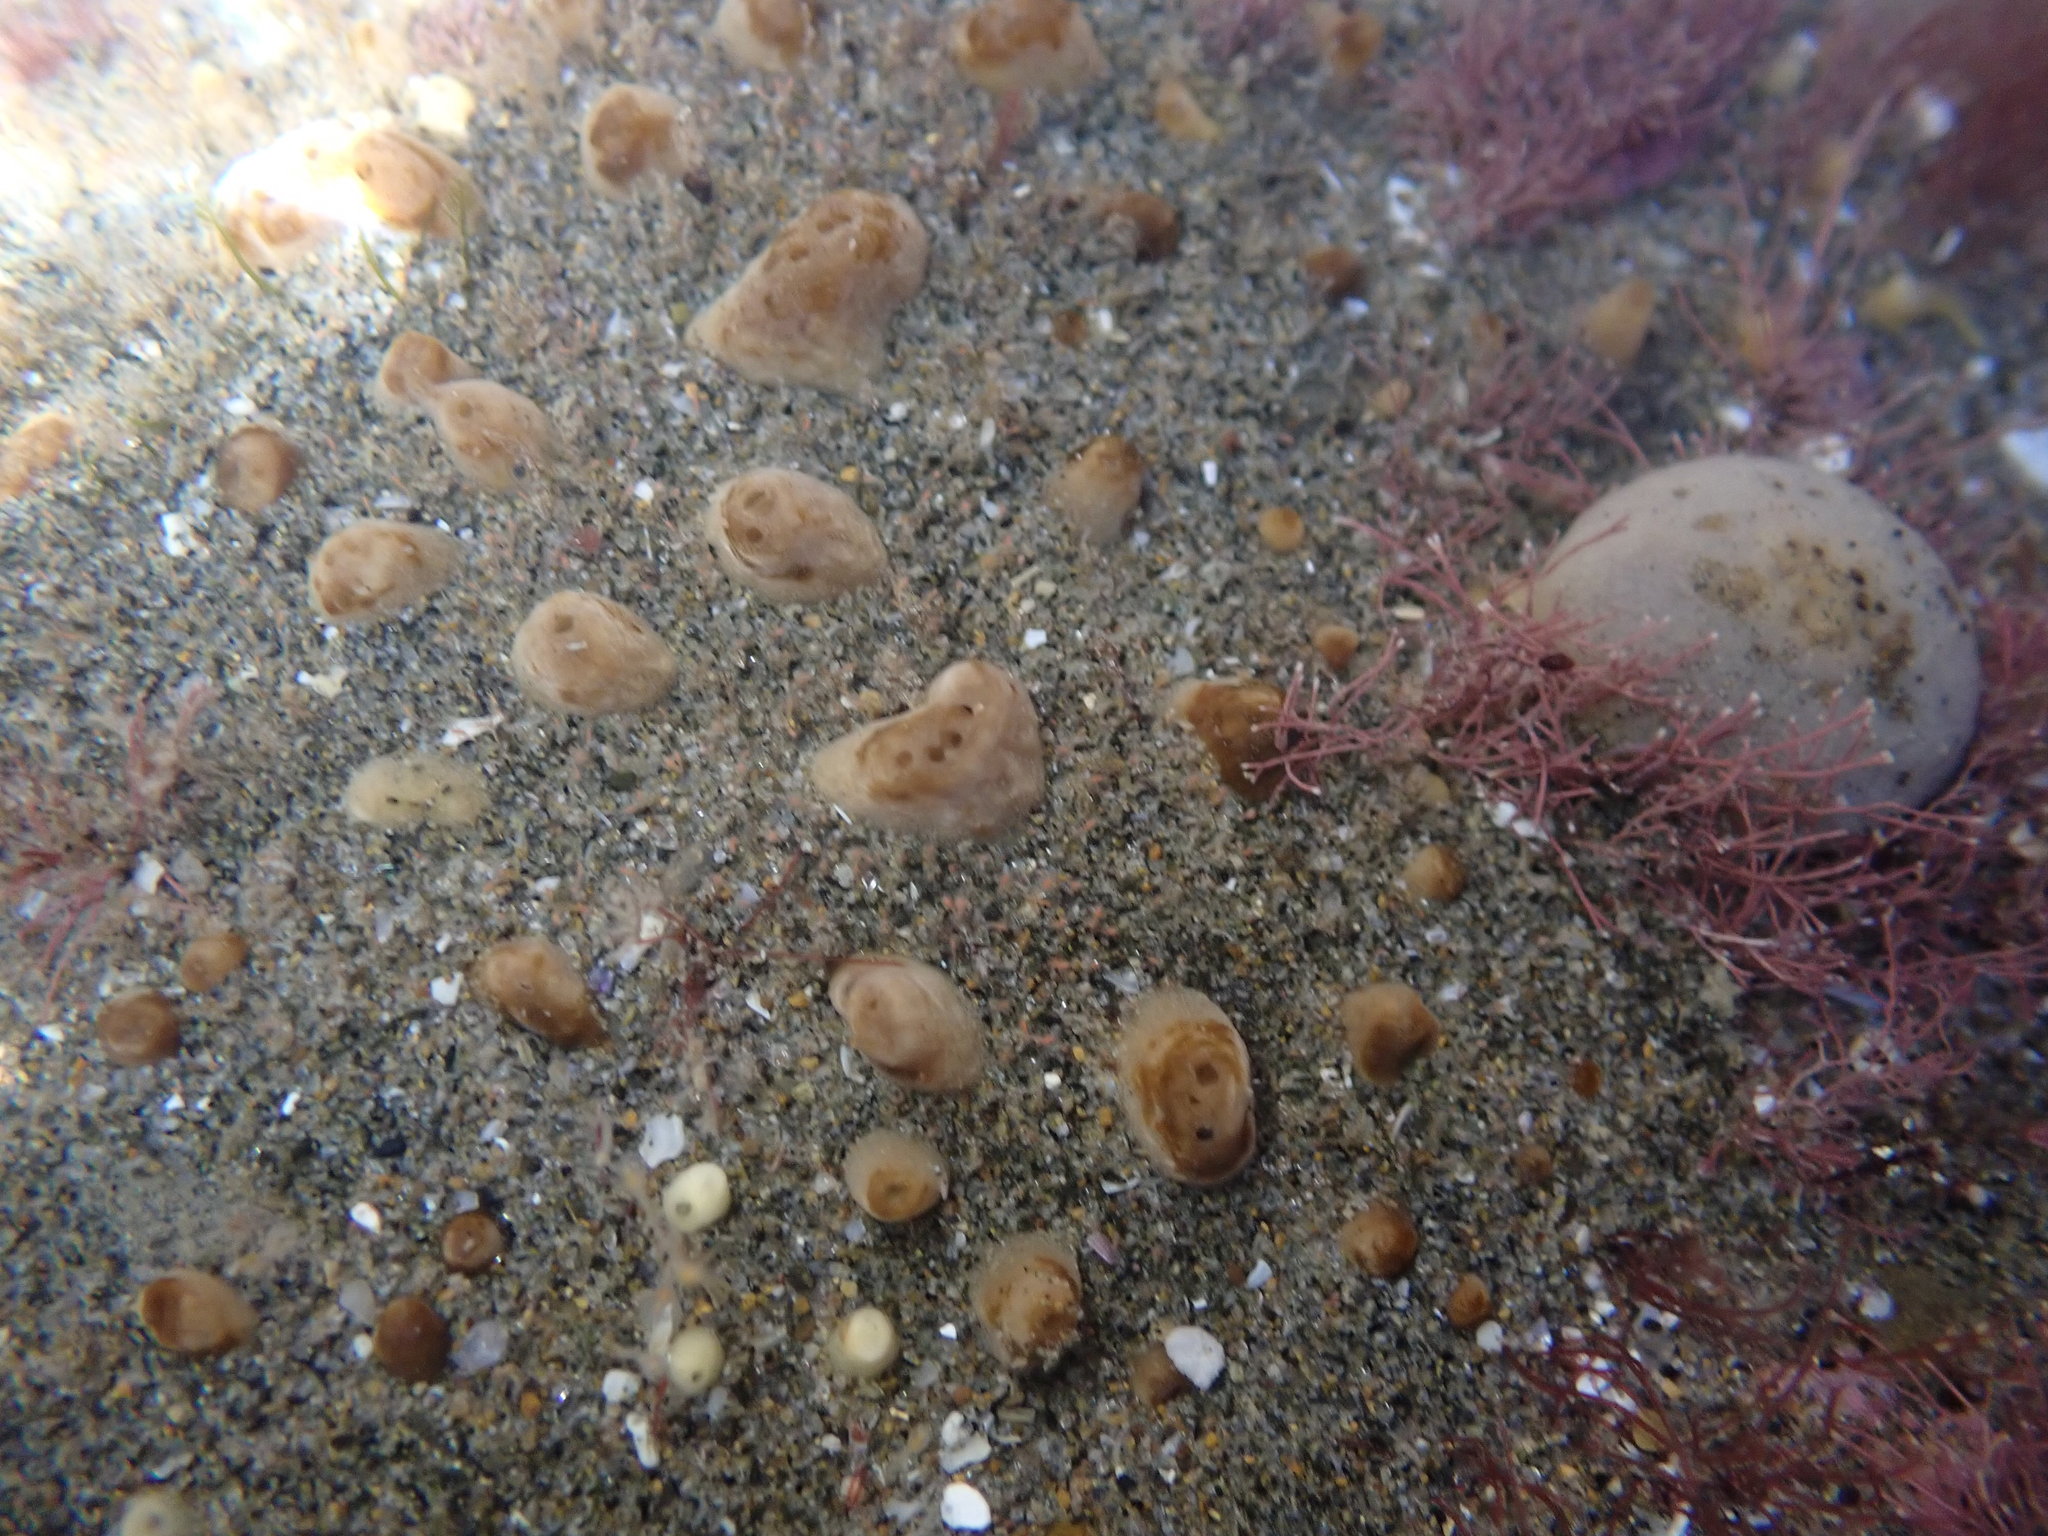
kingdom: Animalia
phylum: Porifera
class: Demospongiae
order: Polymastiida
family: Polymastiidae
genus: Polymastia
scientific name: Polymastia fusca
